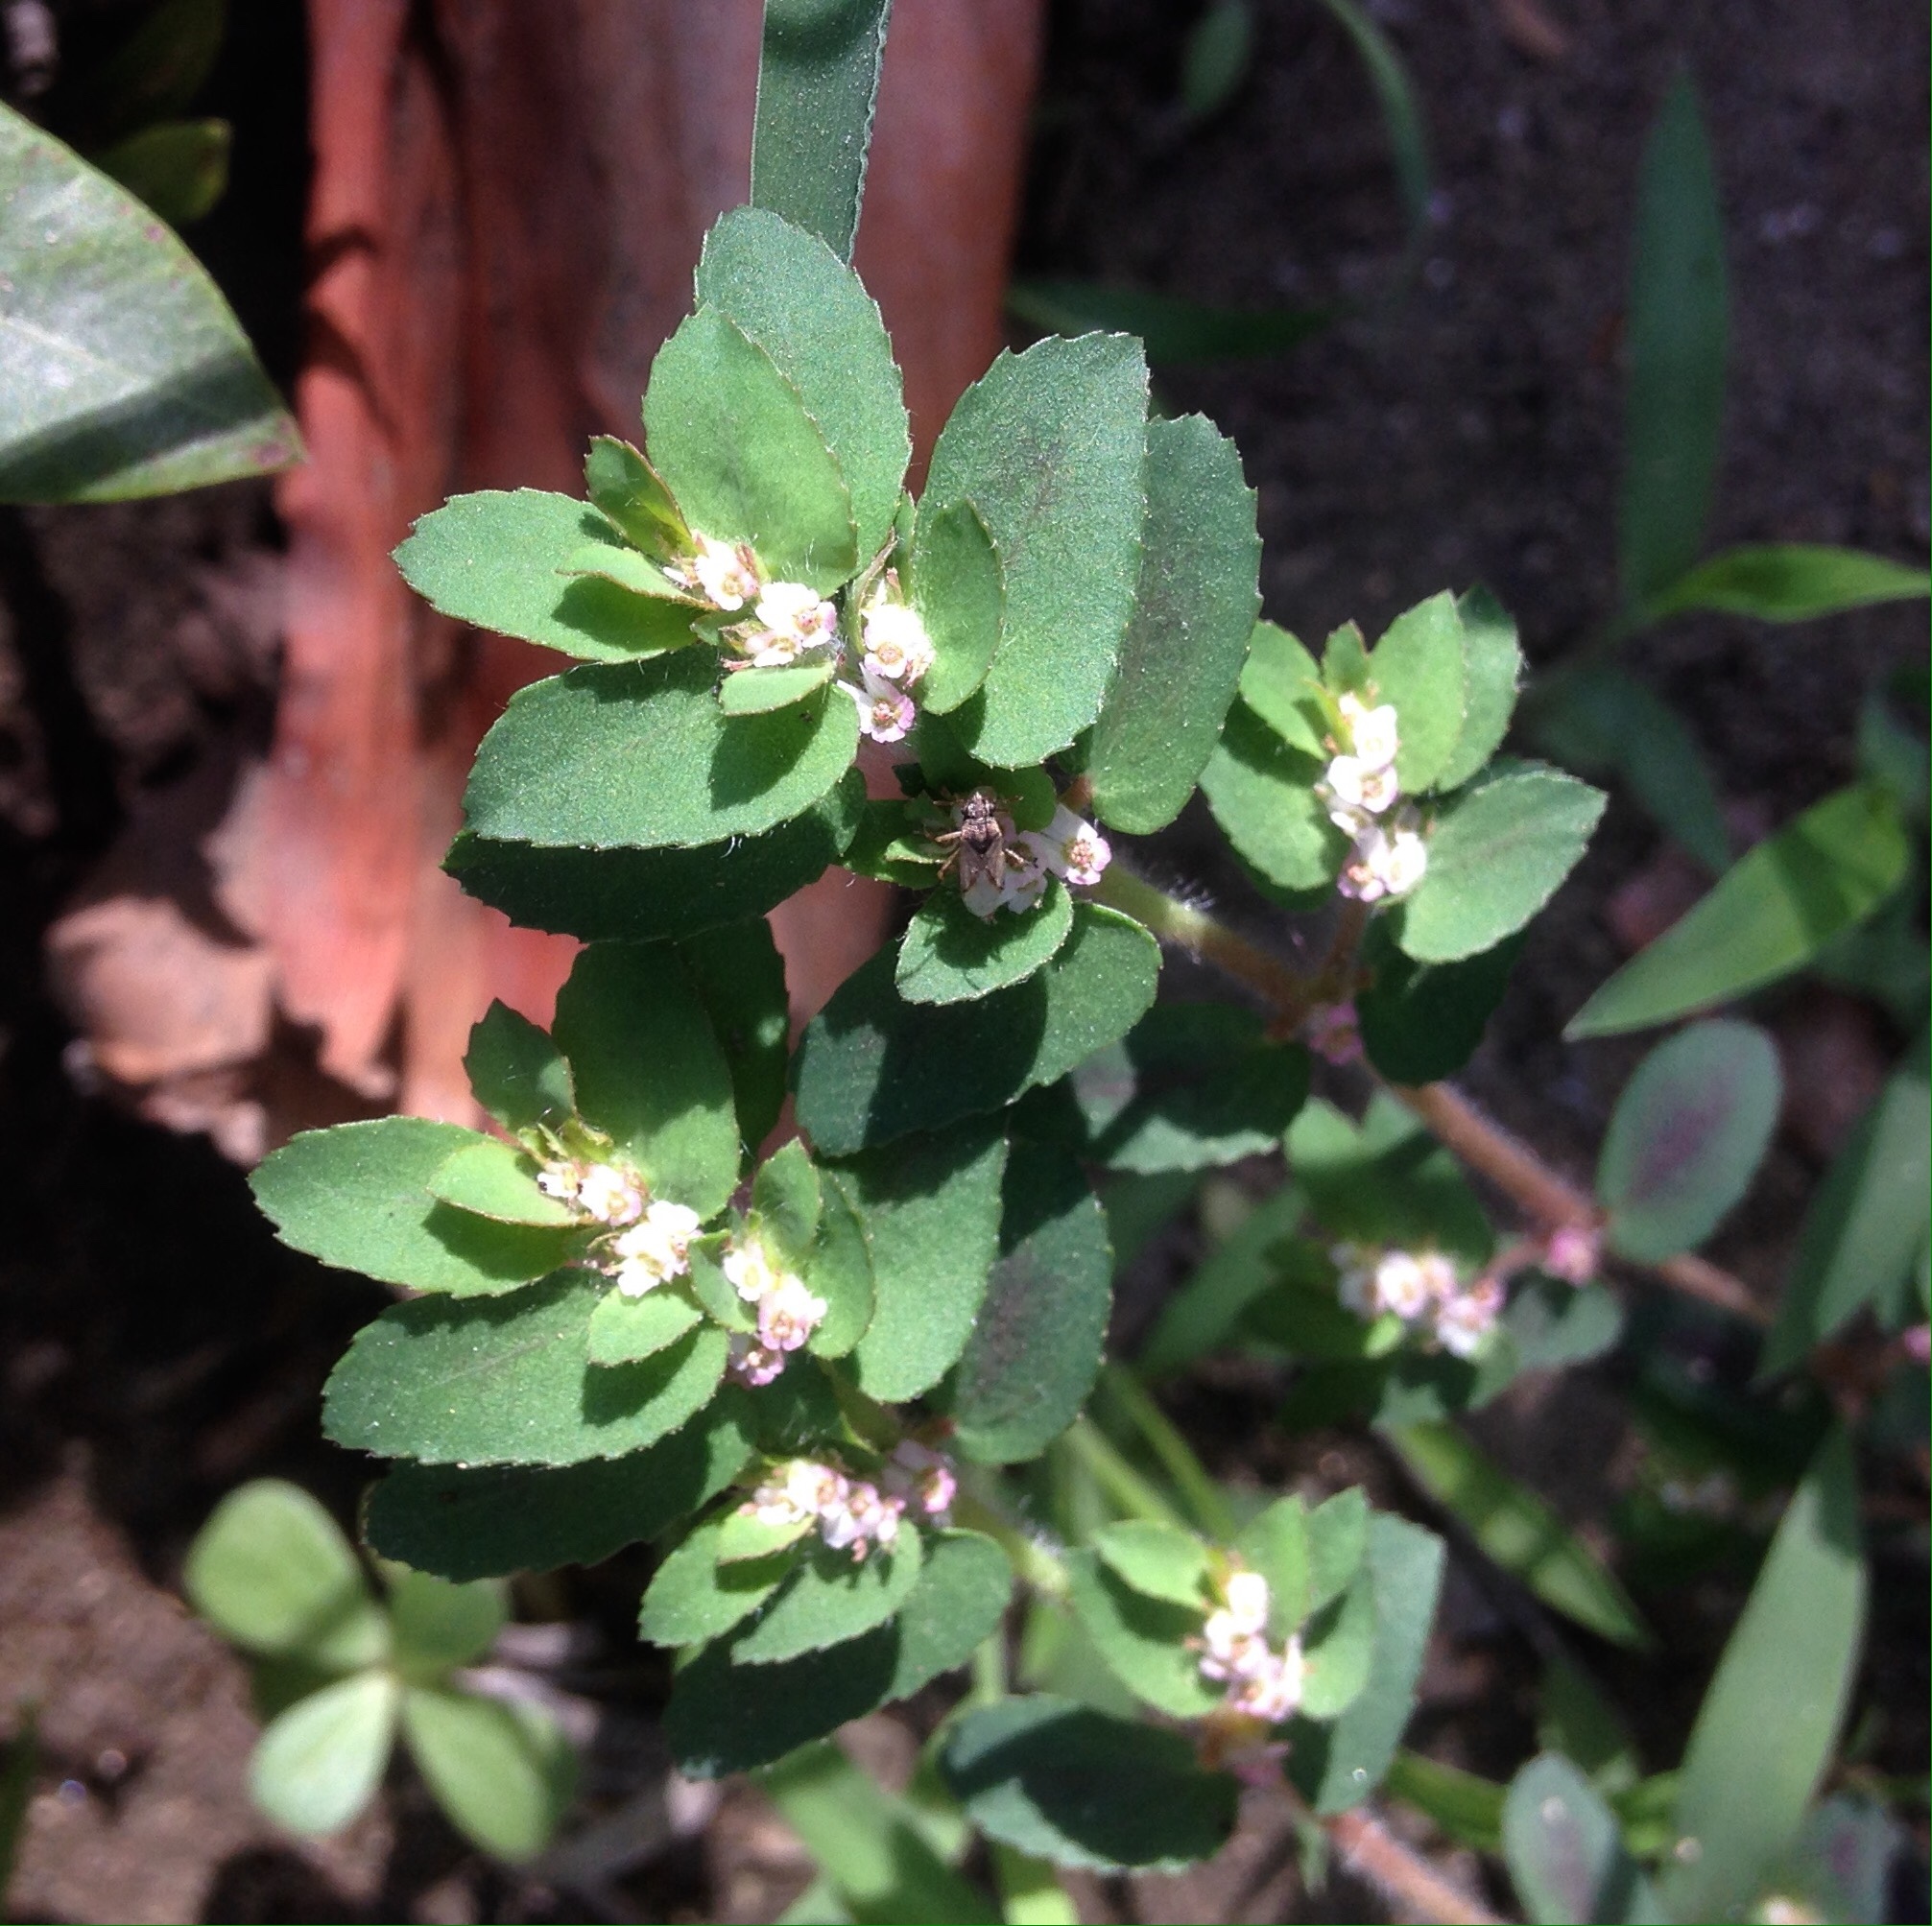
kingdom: Plantae
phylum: Tracheophyta
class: Magnoliopsida
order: Malpighiales
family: Euphorbiaceae
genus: Euphorbia
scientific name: Euphorbia dioeca
